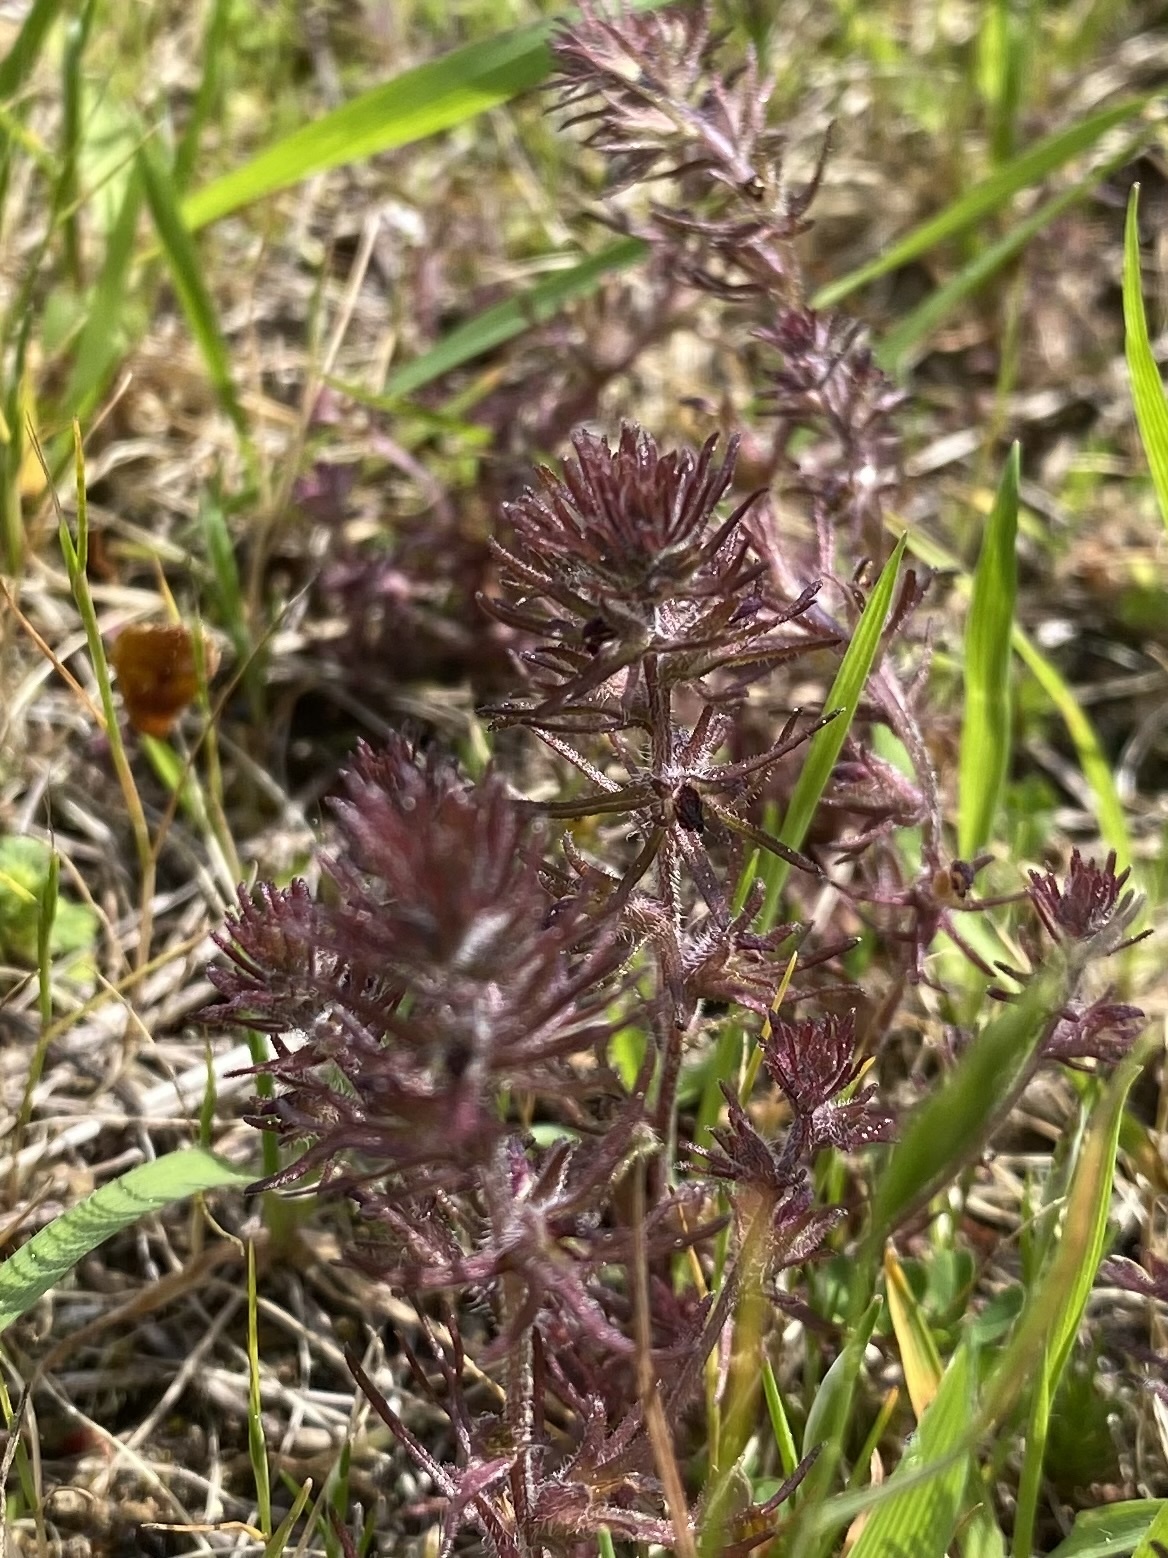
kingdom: Plantae
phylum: Tracheophyta
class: Magnoliopsida
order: Lamiales
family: Orobanchaceae
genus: Triphysaria
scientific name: Triphysaria pusilla
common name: Dwarf false owl-clover
